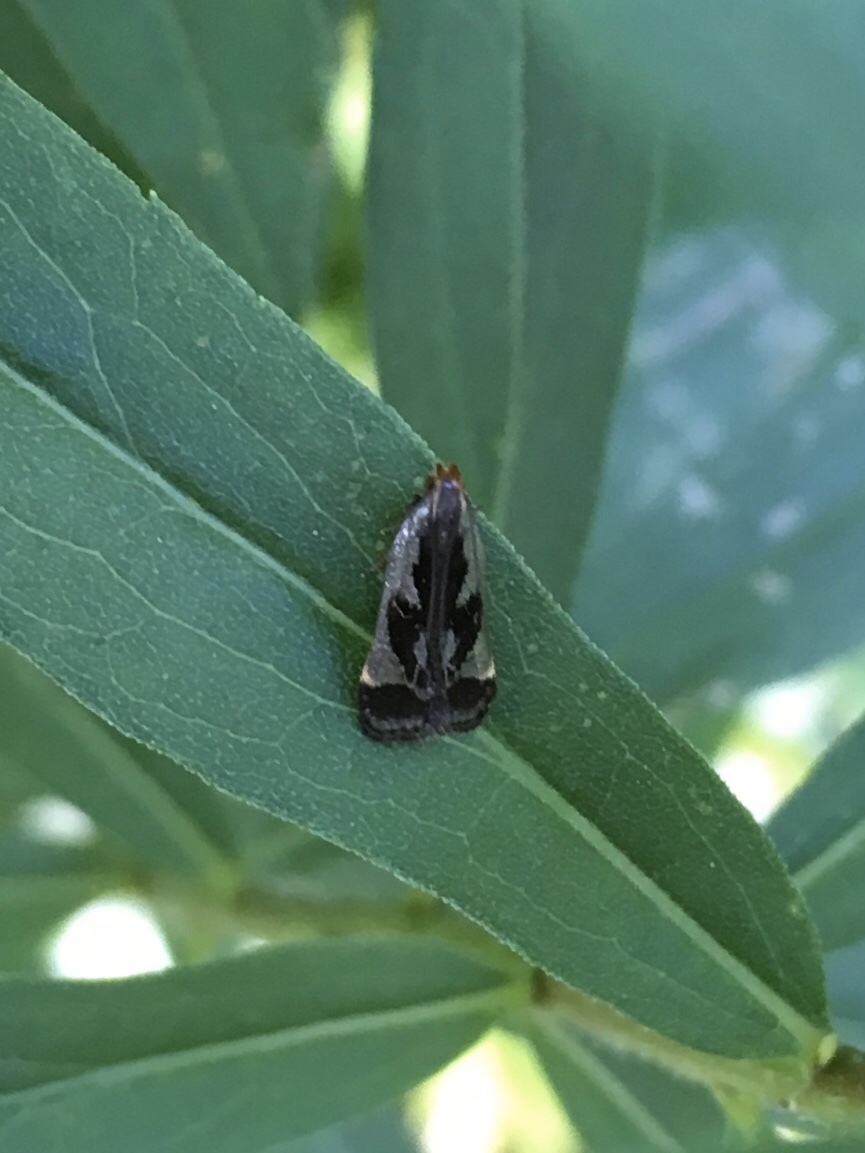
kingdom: Animalia
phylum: Arthropoda
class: Insecta
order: Lepidoptera
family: Gelechiidae
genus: Dichomeris
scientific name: Dichomeris ochripalpella
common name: Shining dichomeris moth
